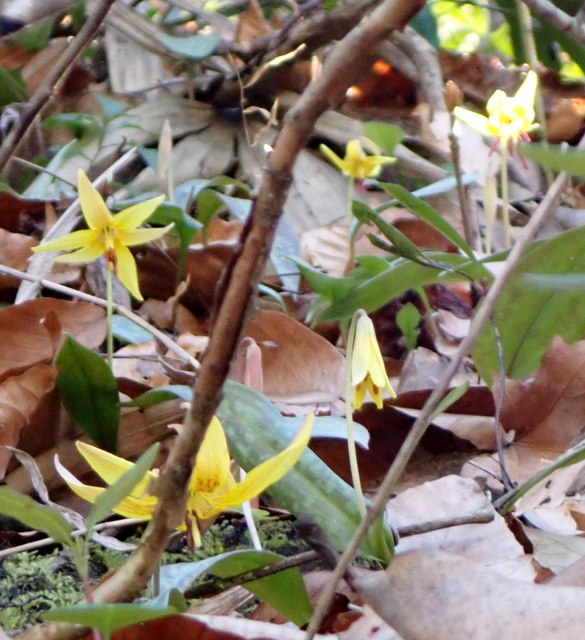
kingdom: Plantae
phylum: Tracheophyta
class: Liliopsida
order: Liliales
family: Liliaceae
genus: Erythronium
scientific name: Erythronium umbilicatum
